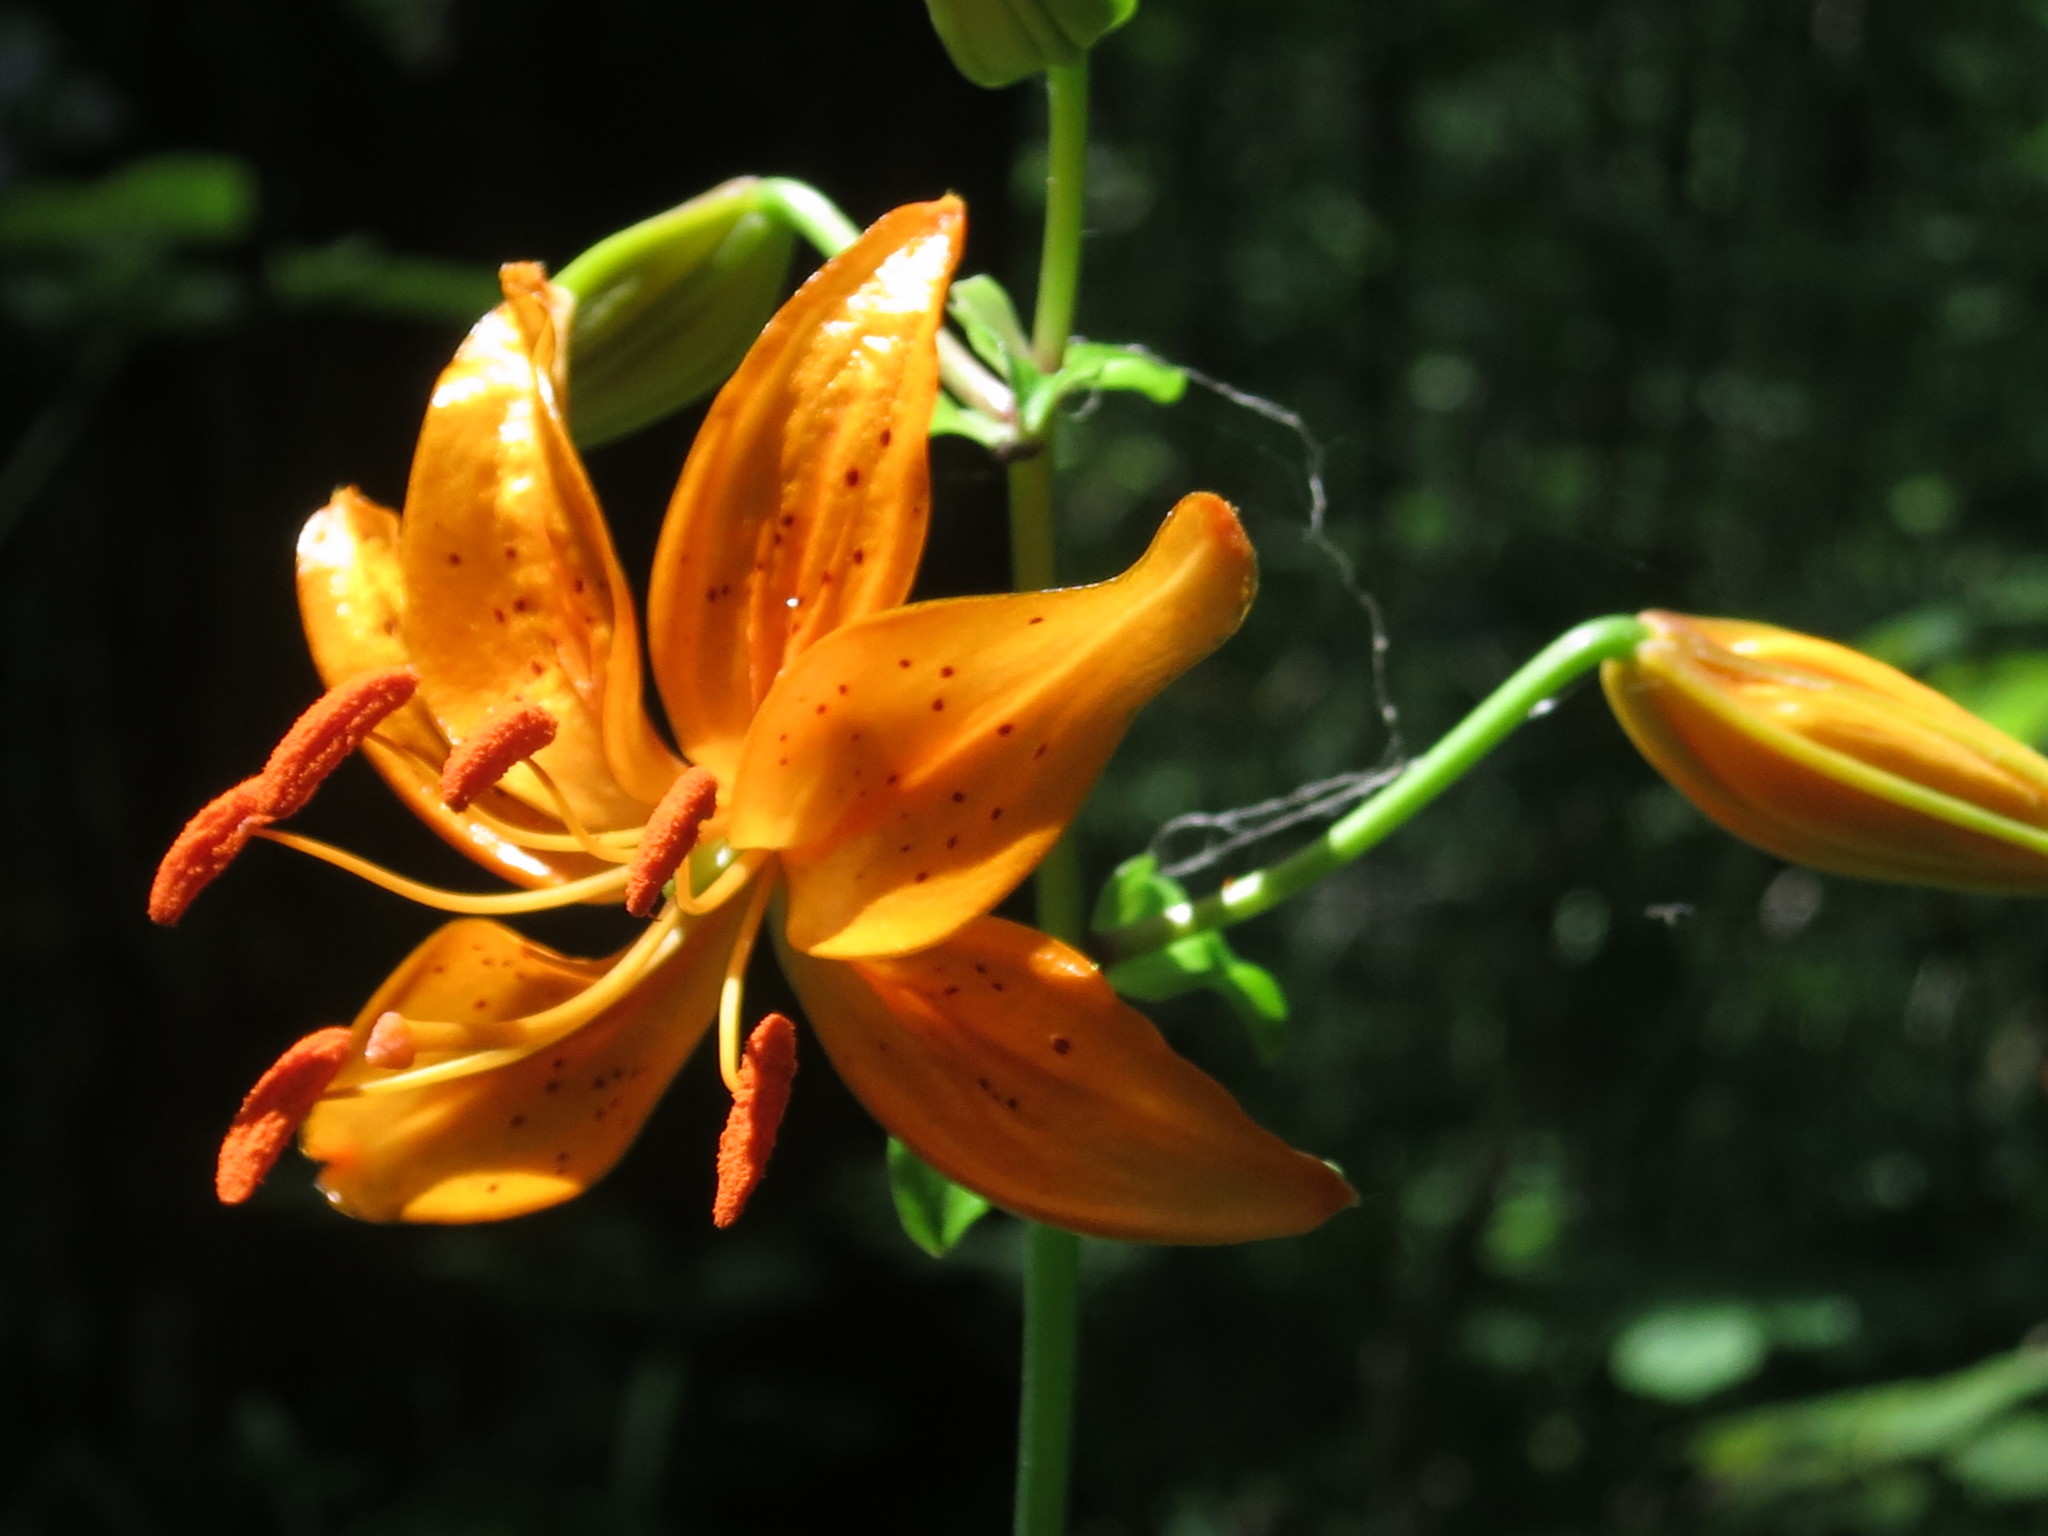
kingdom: Plantae
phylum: Tracheophyta
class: Liliopsida
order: Liliales
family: Liliaceae
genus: Lilium
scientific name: Lilium distichum
